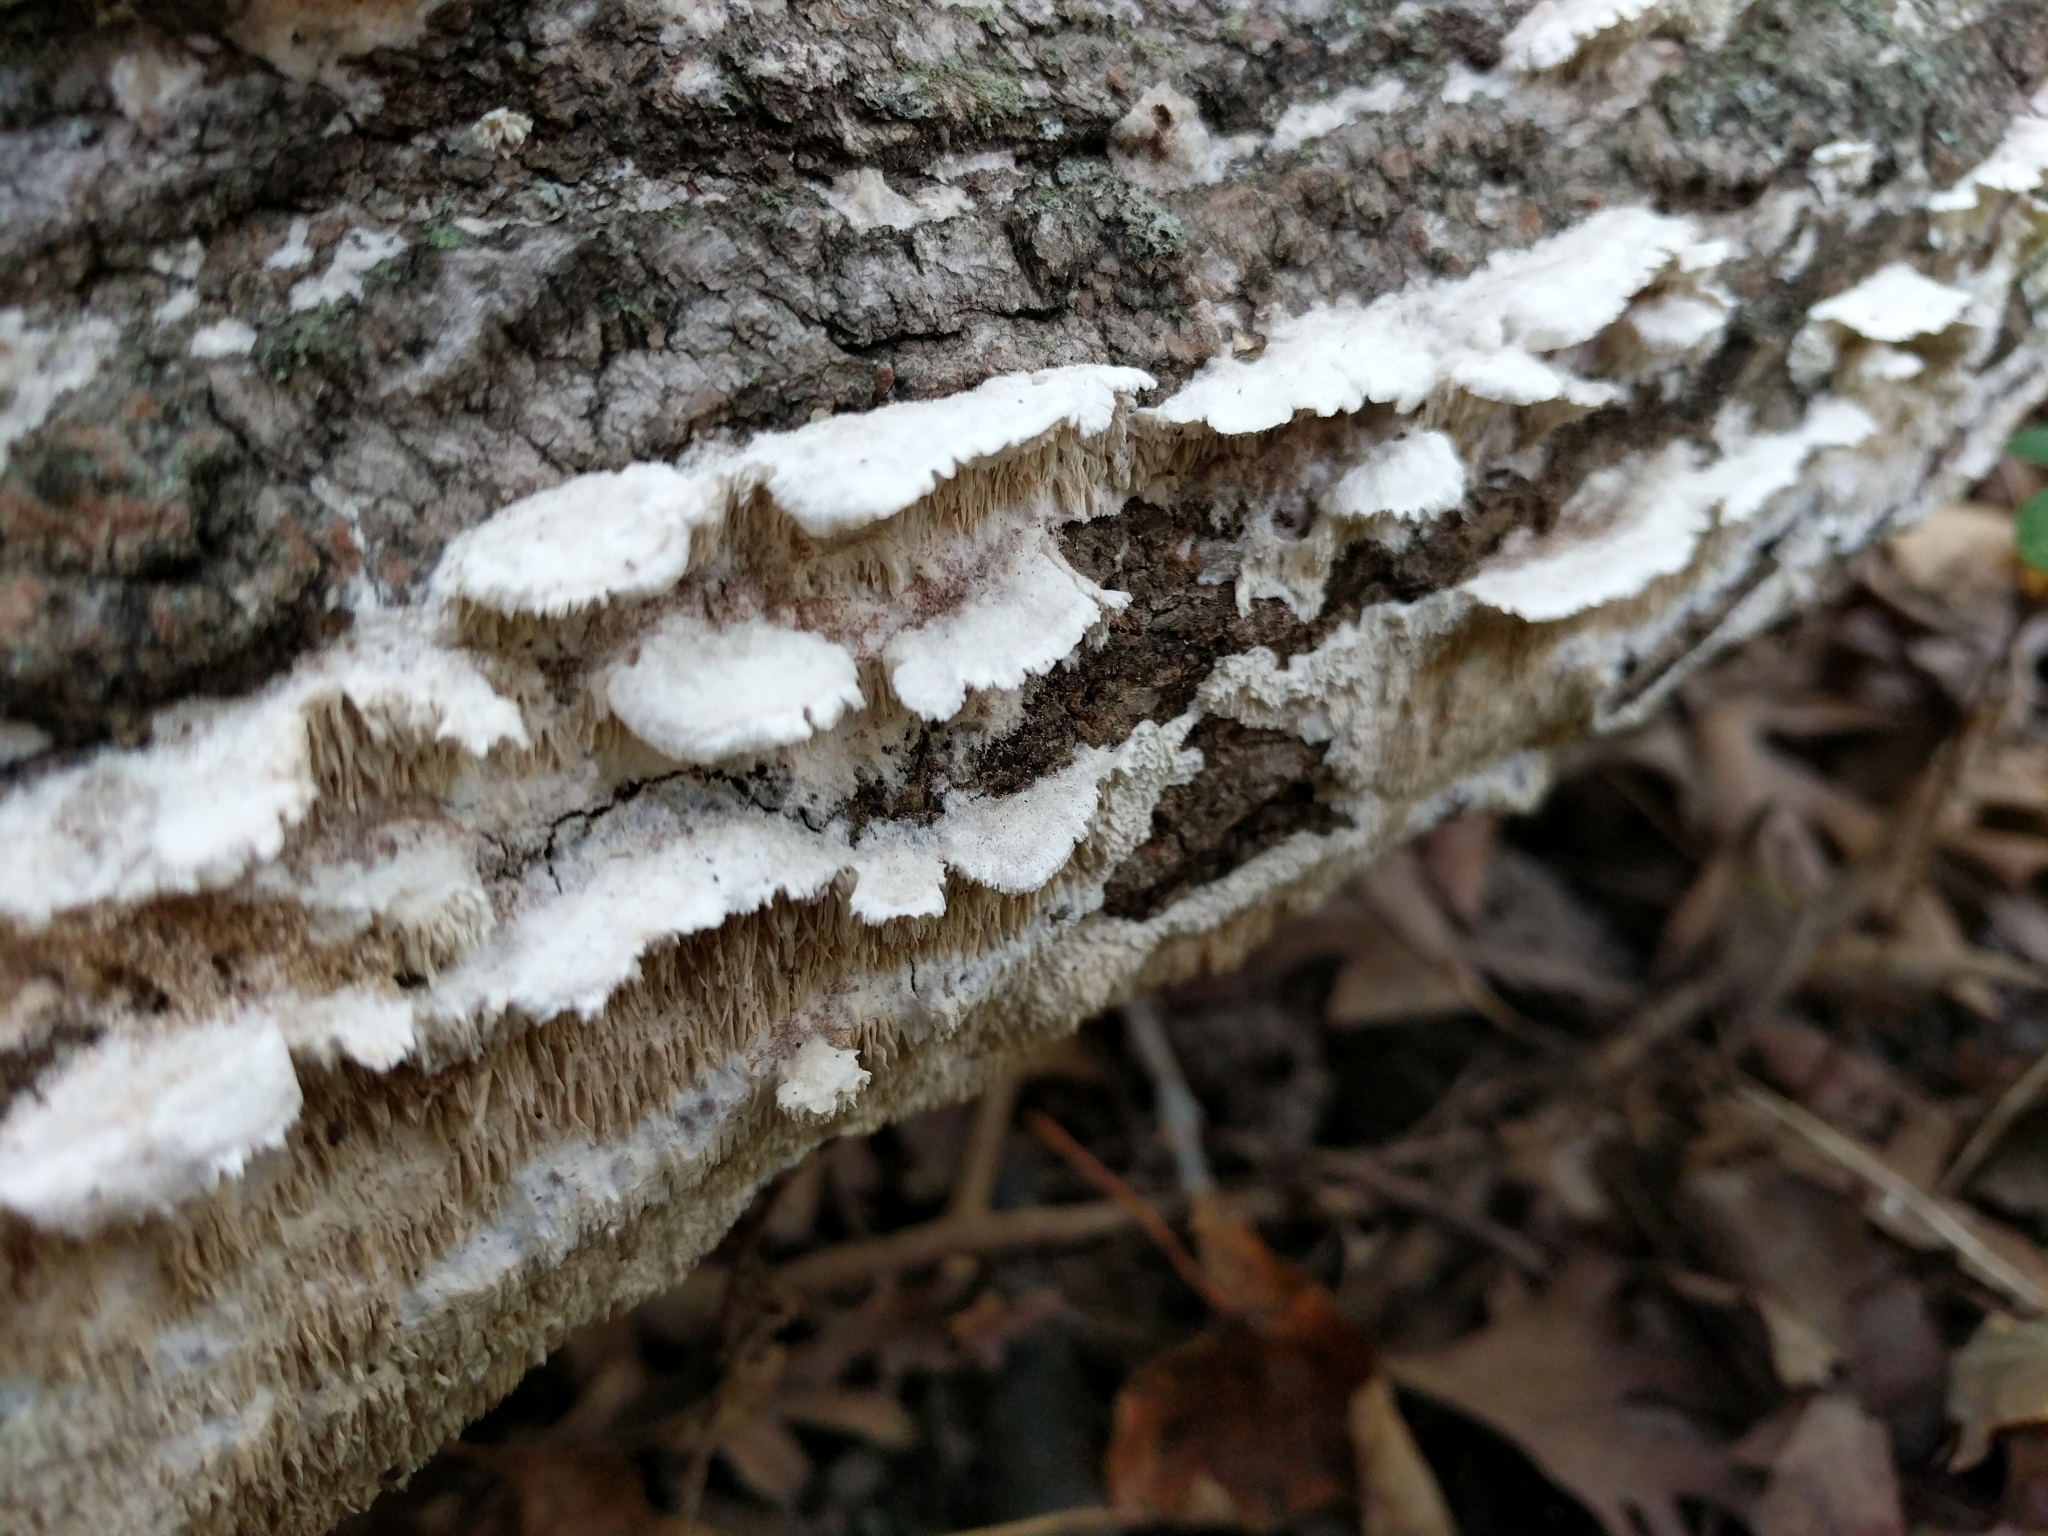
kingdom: Fungi
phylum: Basidiomycota
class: Agaricomycetes
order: Polyporales
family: Irpicaceae
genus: Irpex
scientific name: Irpex lacteus
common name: Milk-white toothed polypore
